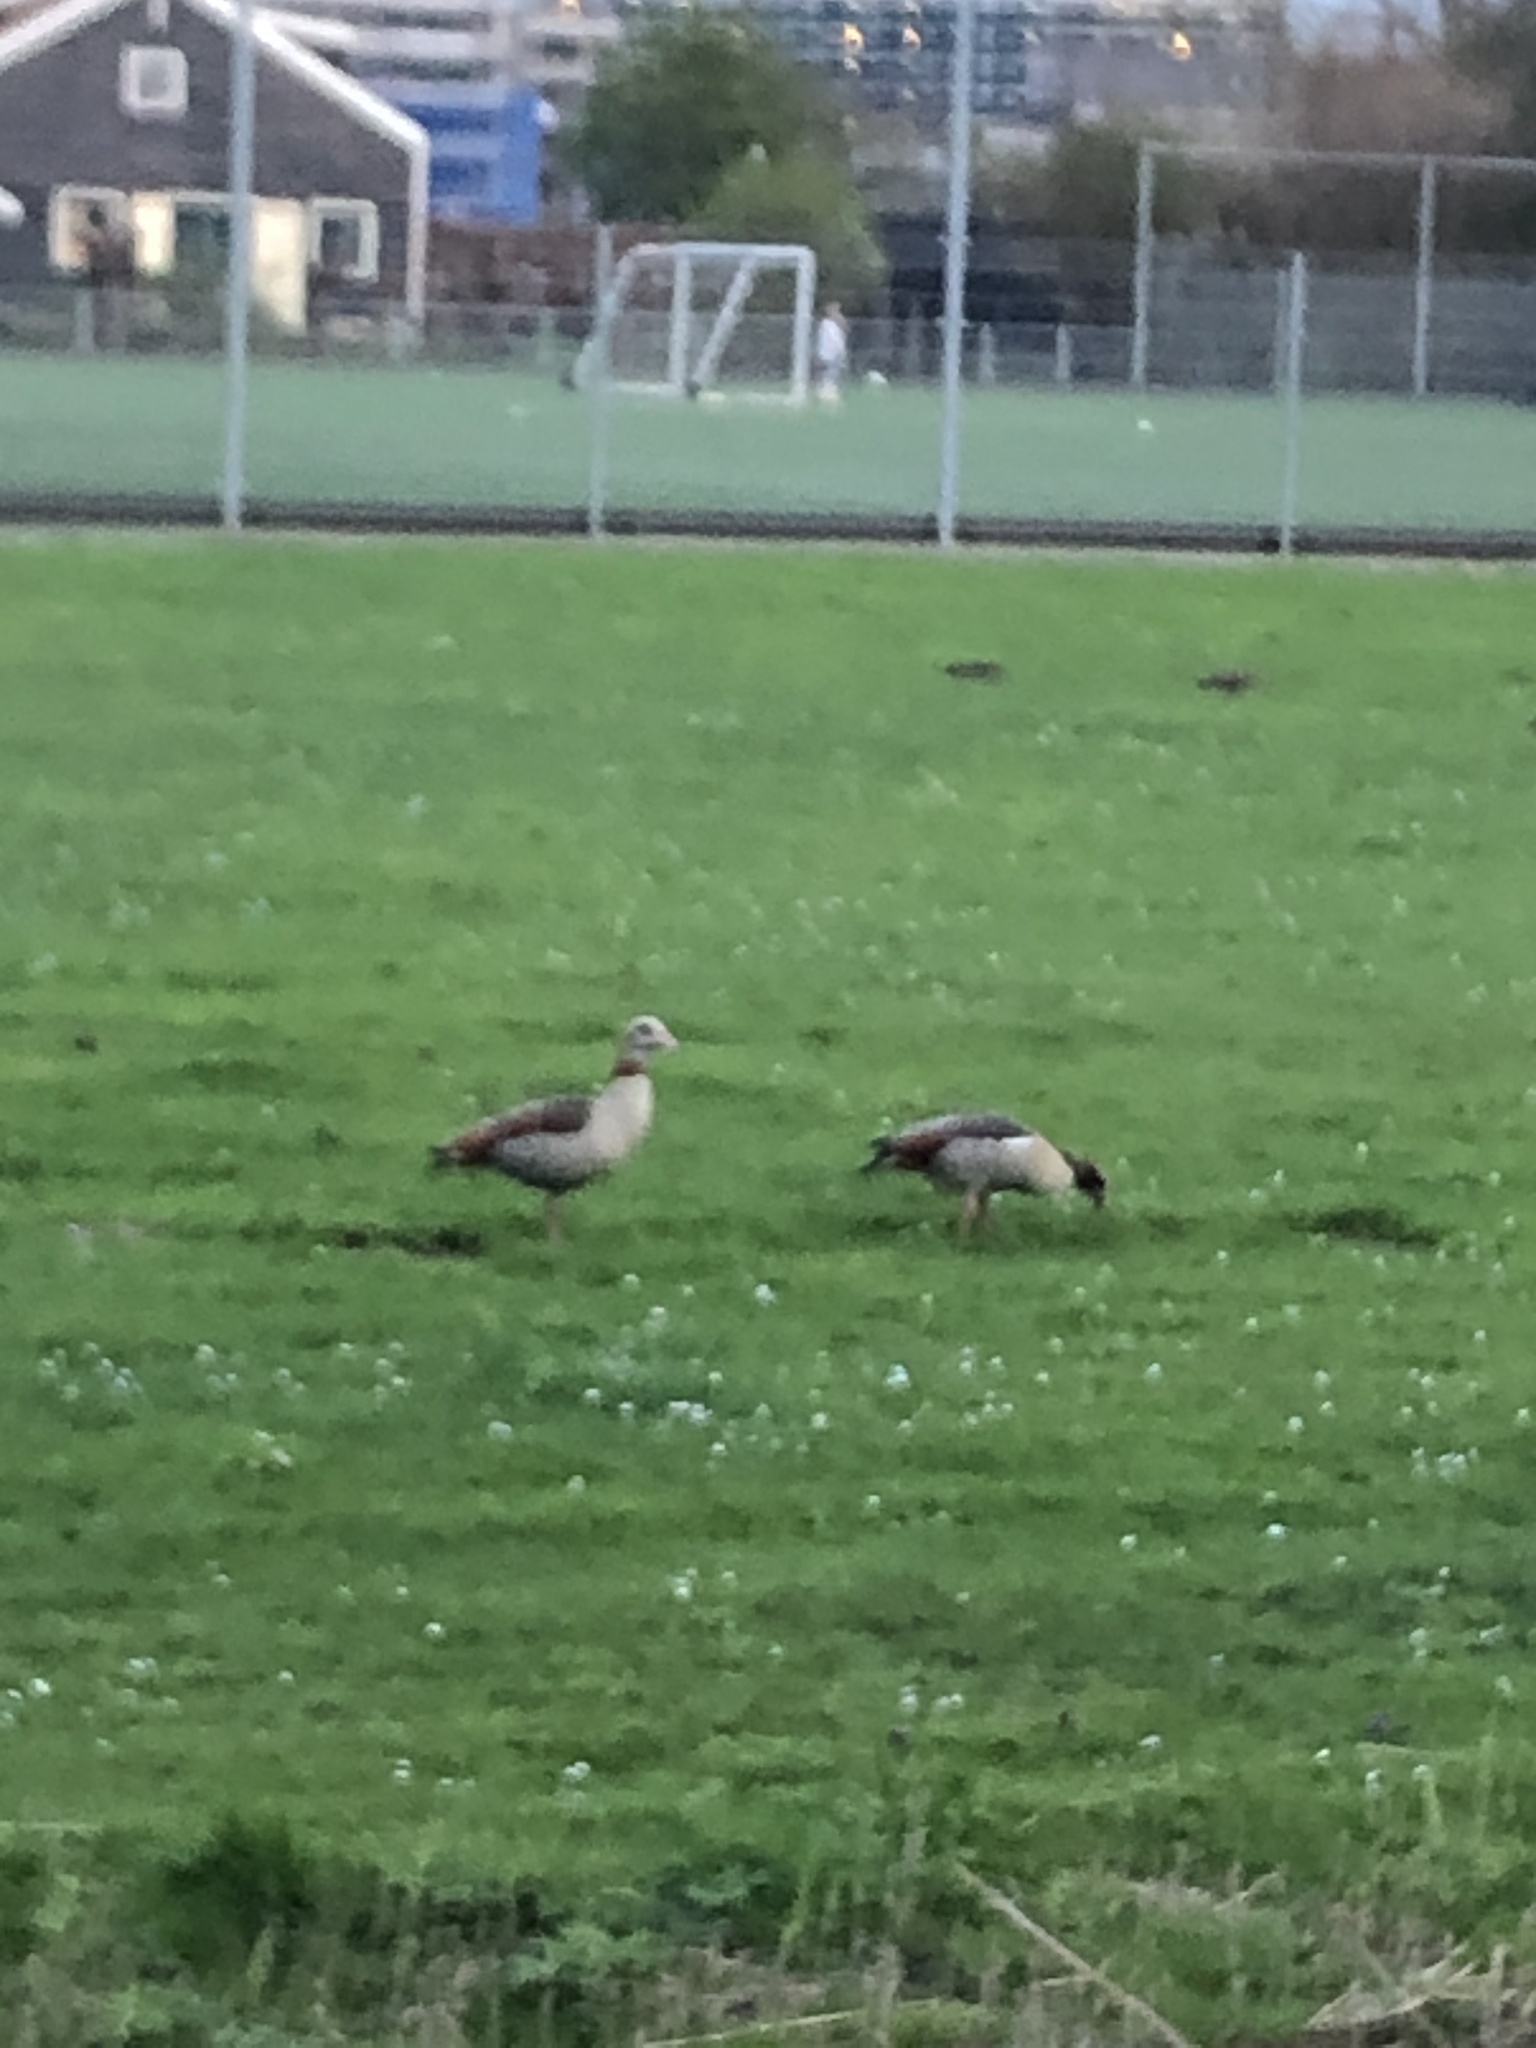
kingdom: Animalia
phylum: Chordata
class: Aves
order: Anseriformes
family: Anatidae
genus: Alopochen
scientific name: Alopochen aegyptiaca
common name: Egyptian goose
